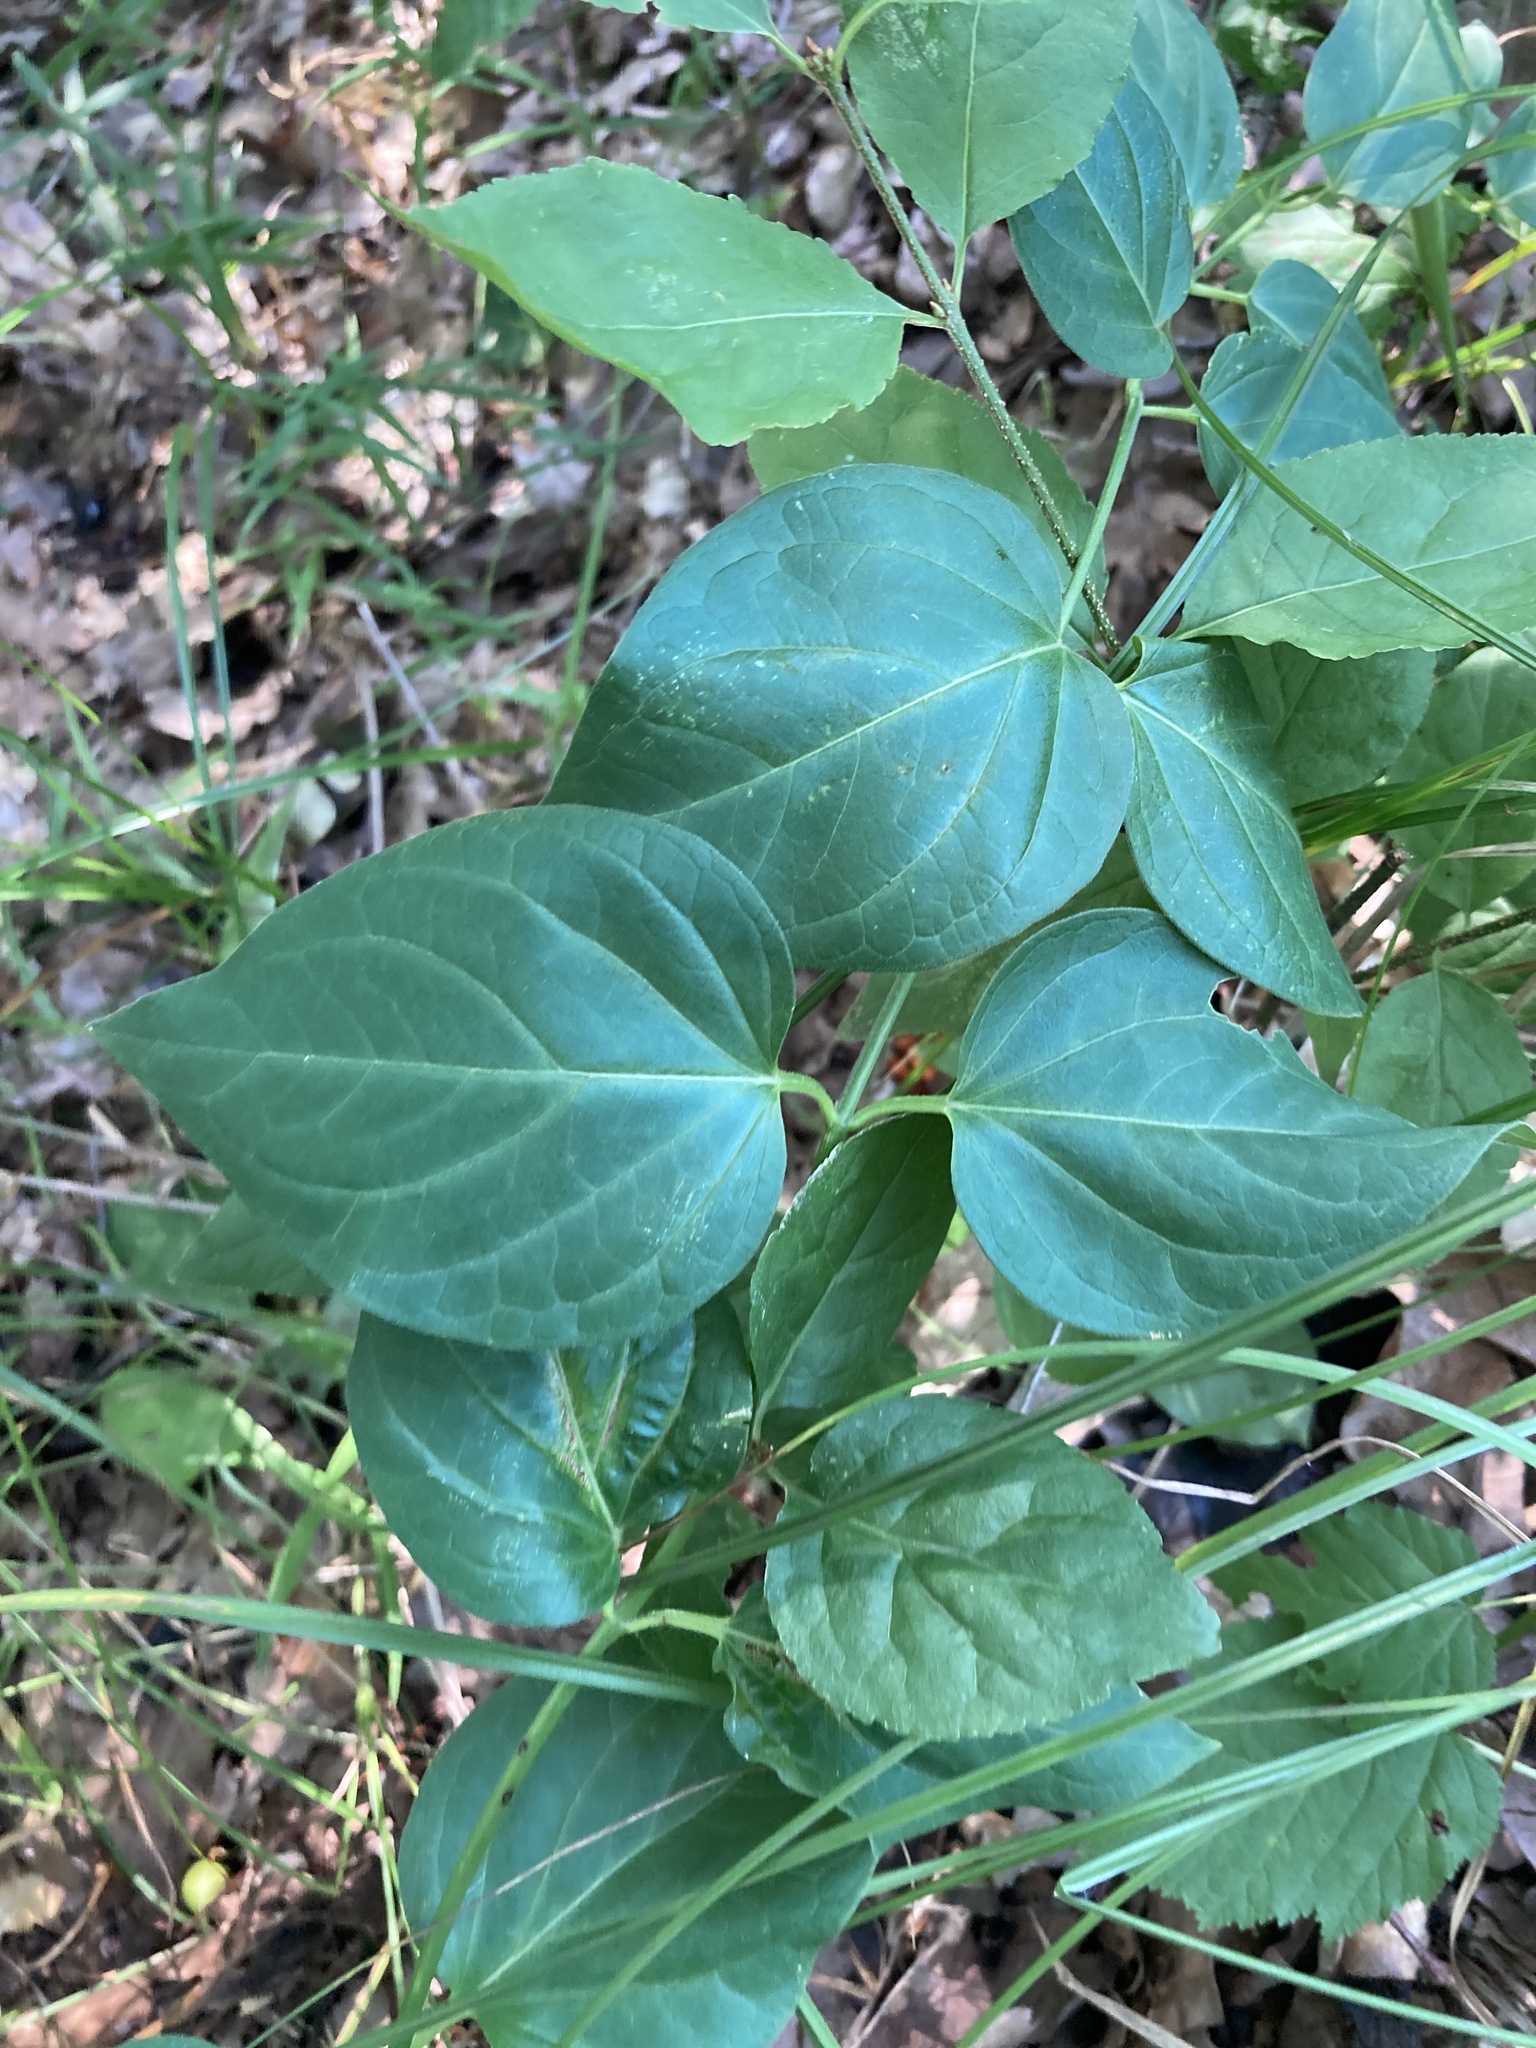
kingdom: Plantae
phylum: Tracheophyta
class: Magnoliopsida
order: Gentianales
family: Apocynaceae
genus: Vincetoxicum
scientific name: Vincetoxicum hirundinaria
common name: White swallowwort
